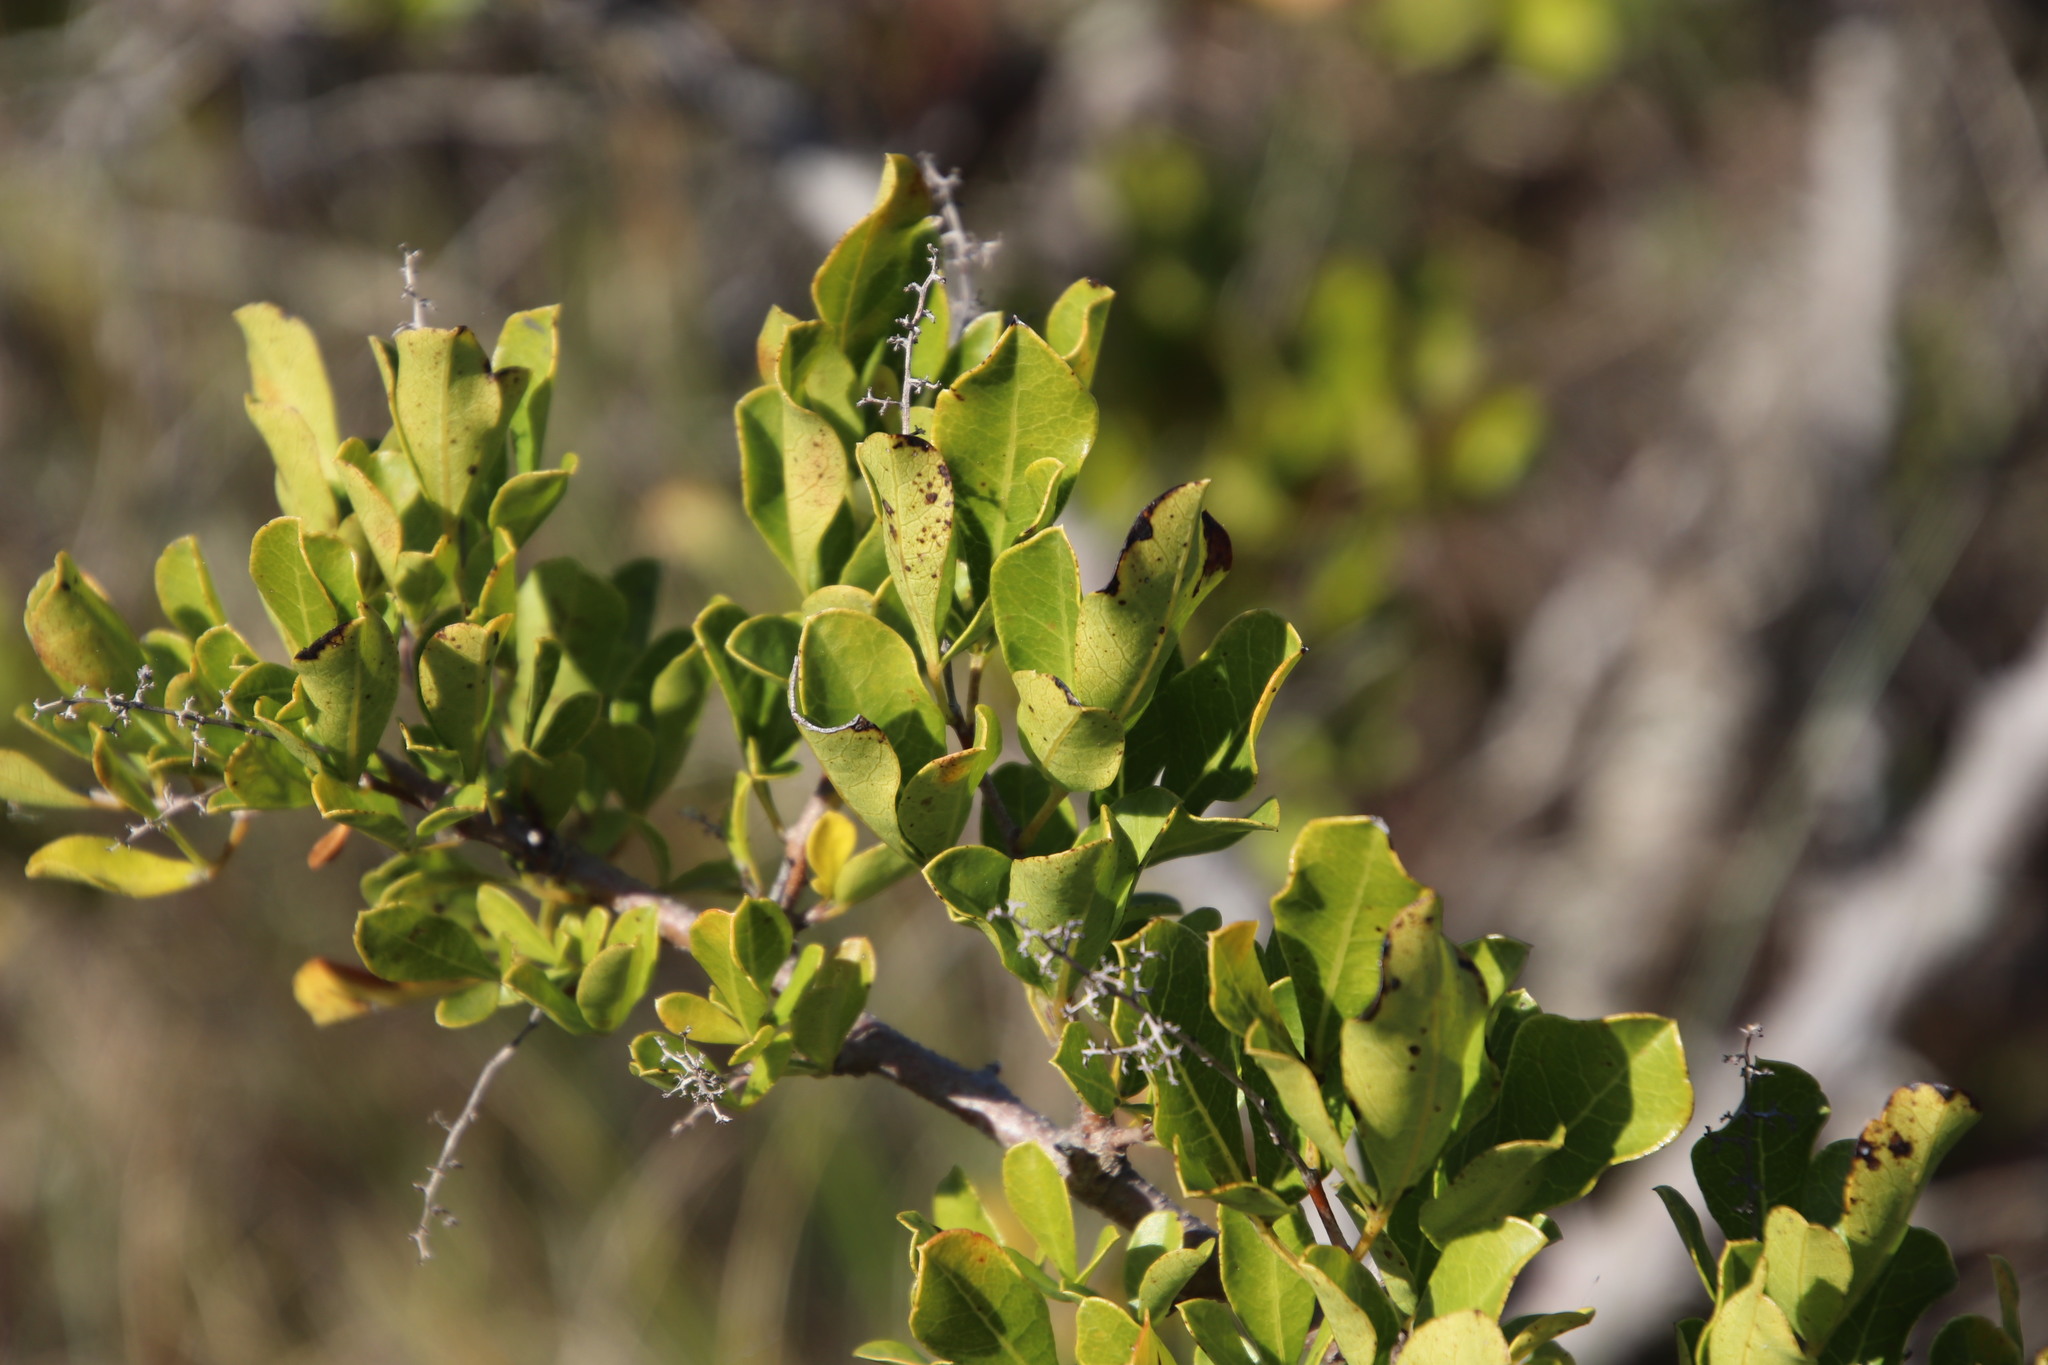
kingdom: Plantae
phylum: Tracheophyta
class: Magnoliopsida
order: Sapindales
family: Anacardiaceae
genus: Searsia
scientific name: Searsia laevigata
